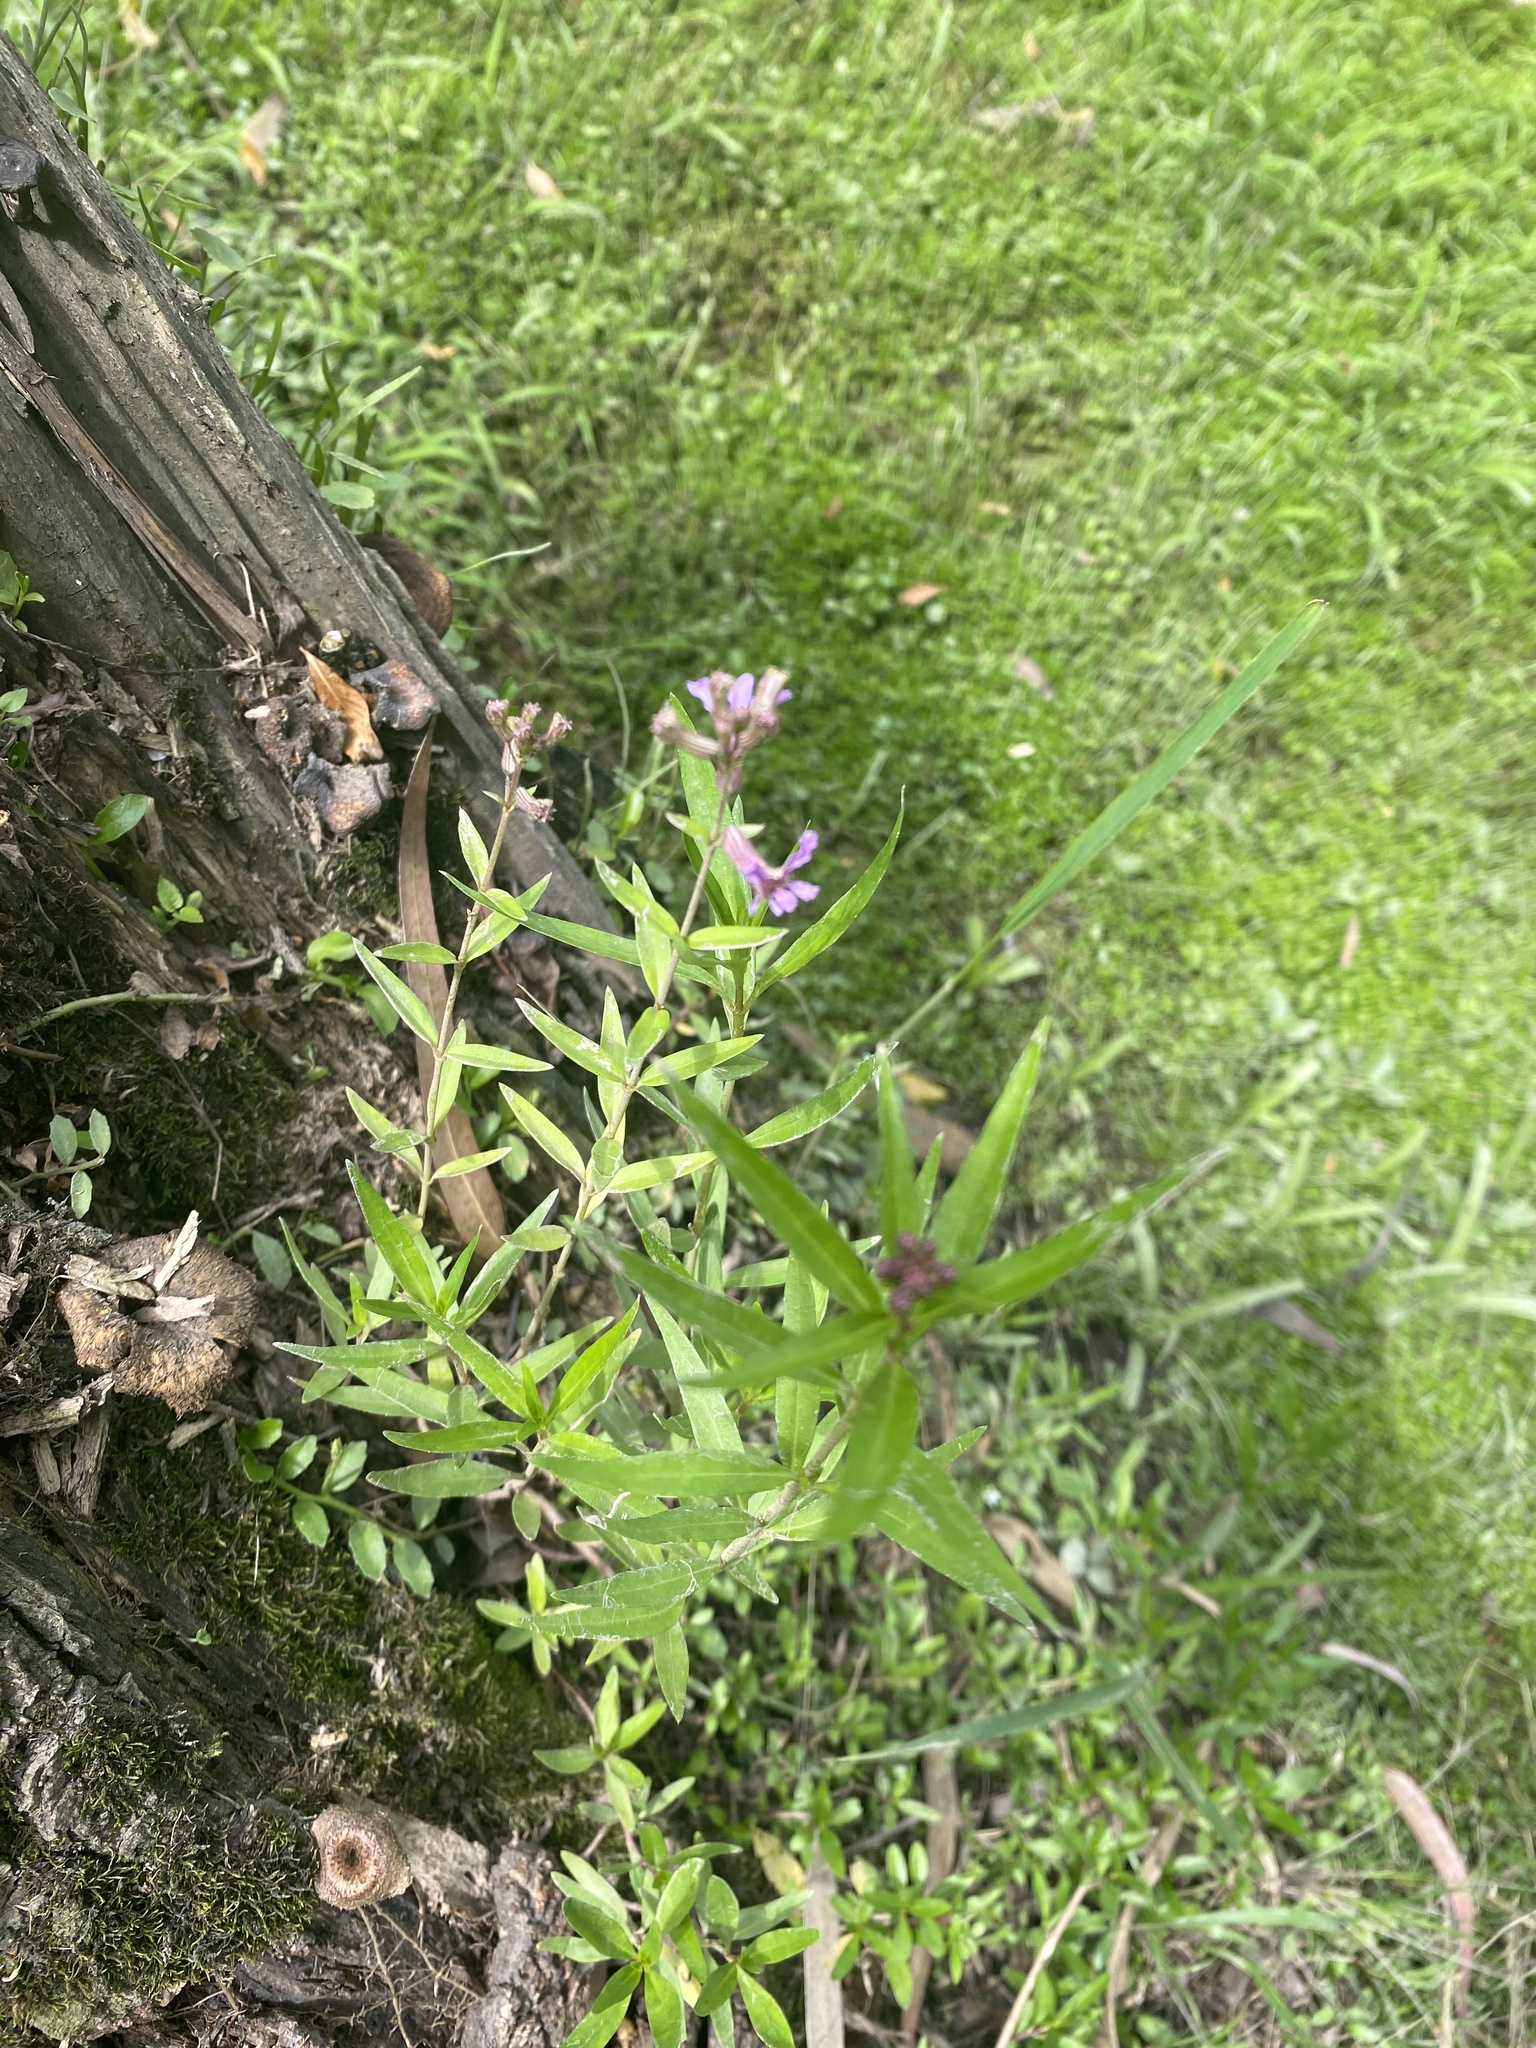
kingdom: Plantae
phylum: Tracheophyta
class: Magnoliopsida
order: Myrtales
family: Lythraceae
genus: Cuphea
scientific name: Cuphea fruticosa
